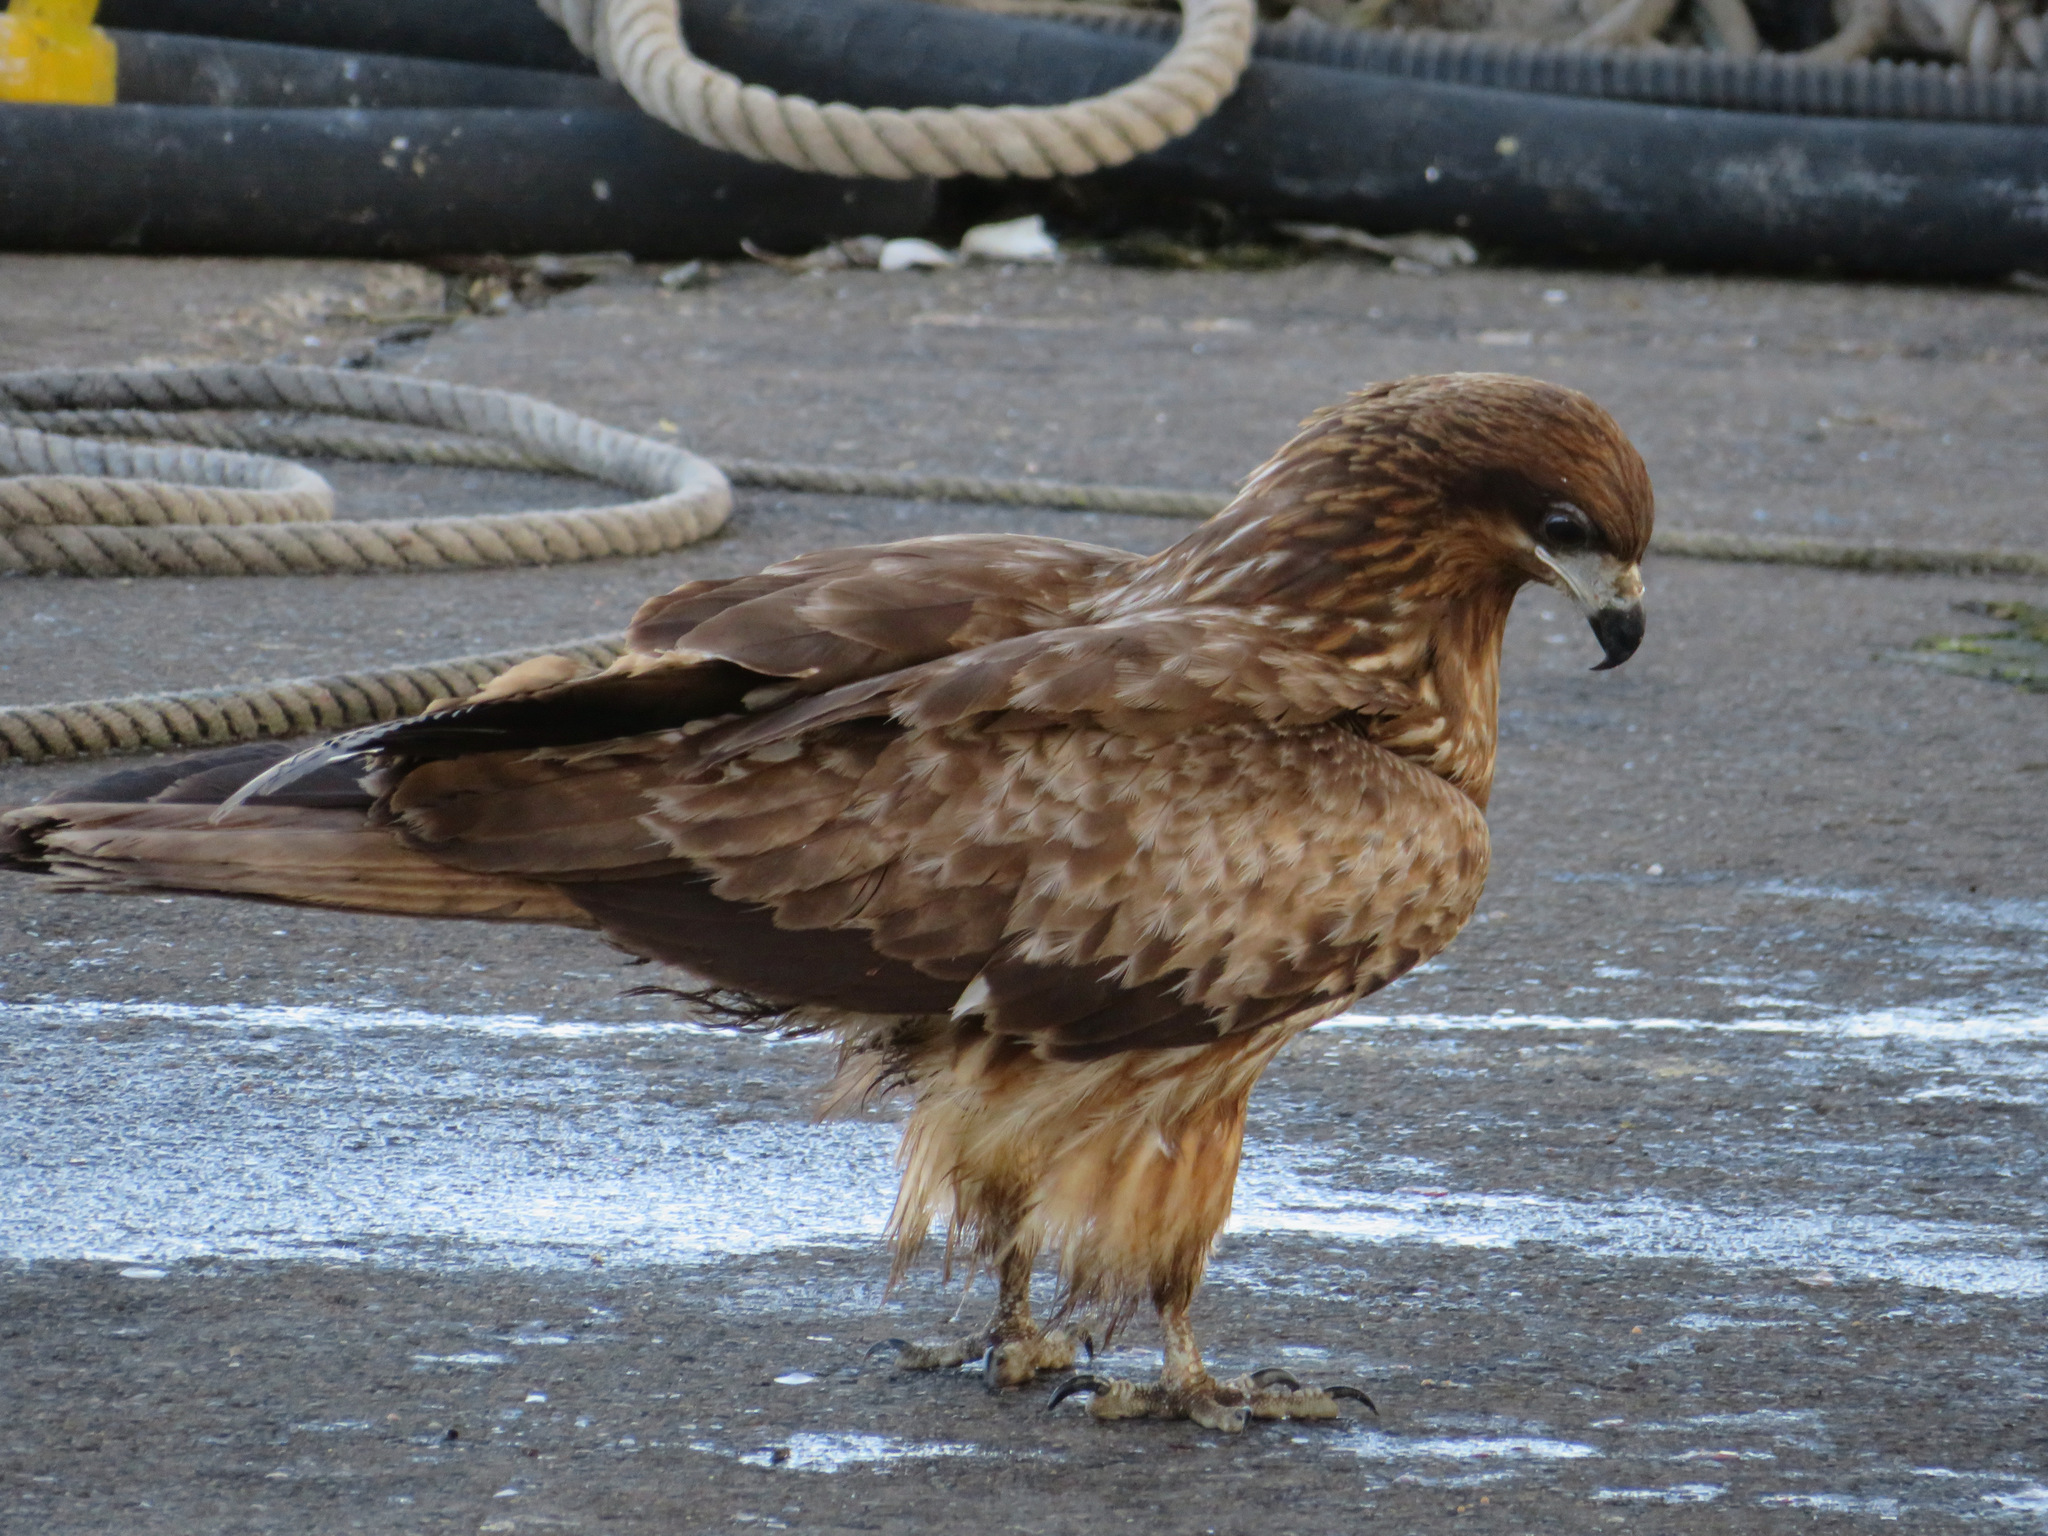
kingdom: Animalia
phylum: Chordata
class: Aves
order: Accipitriformes
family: Accipitridae
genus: Milvus
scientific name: Milvus migrans
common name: Black kite
